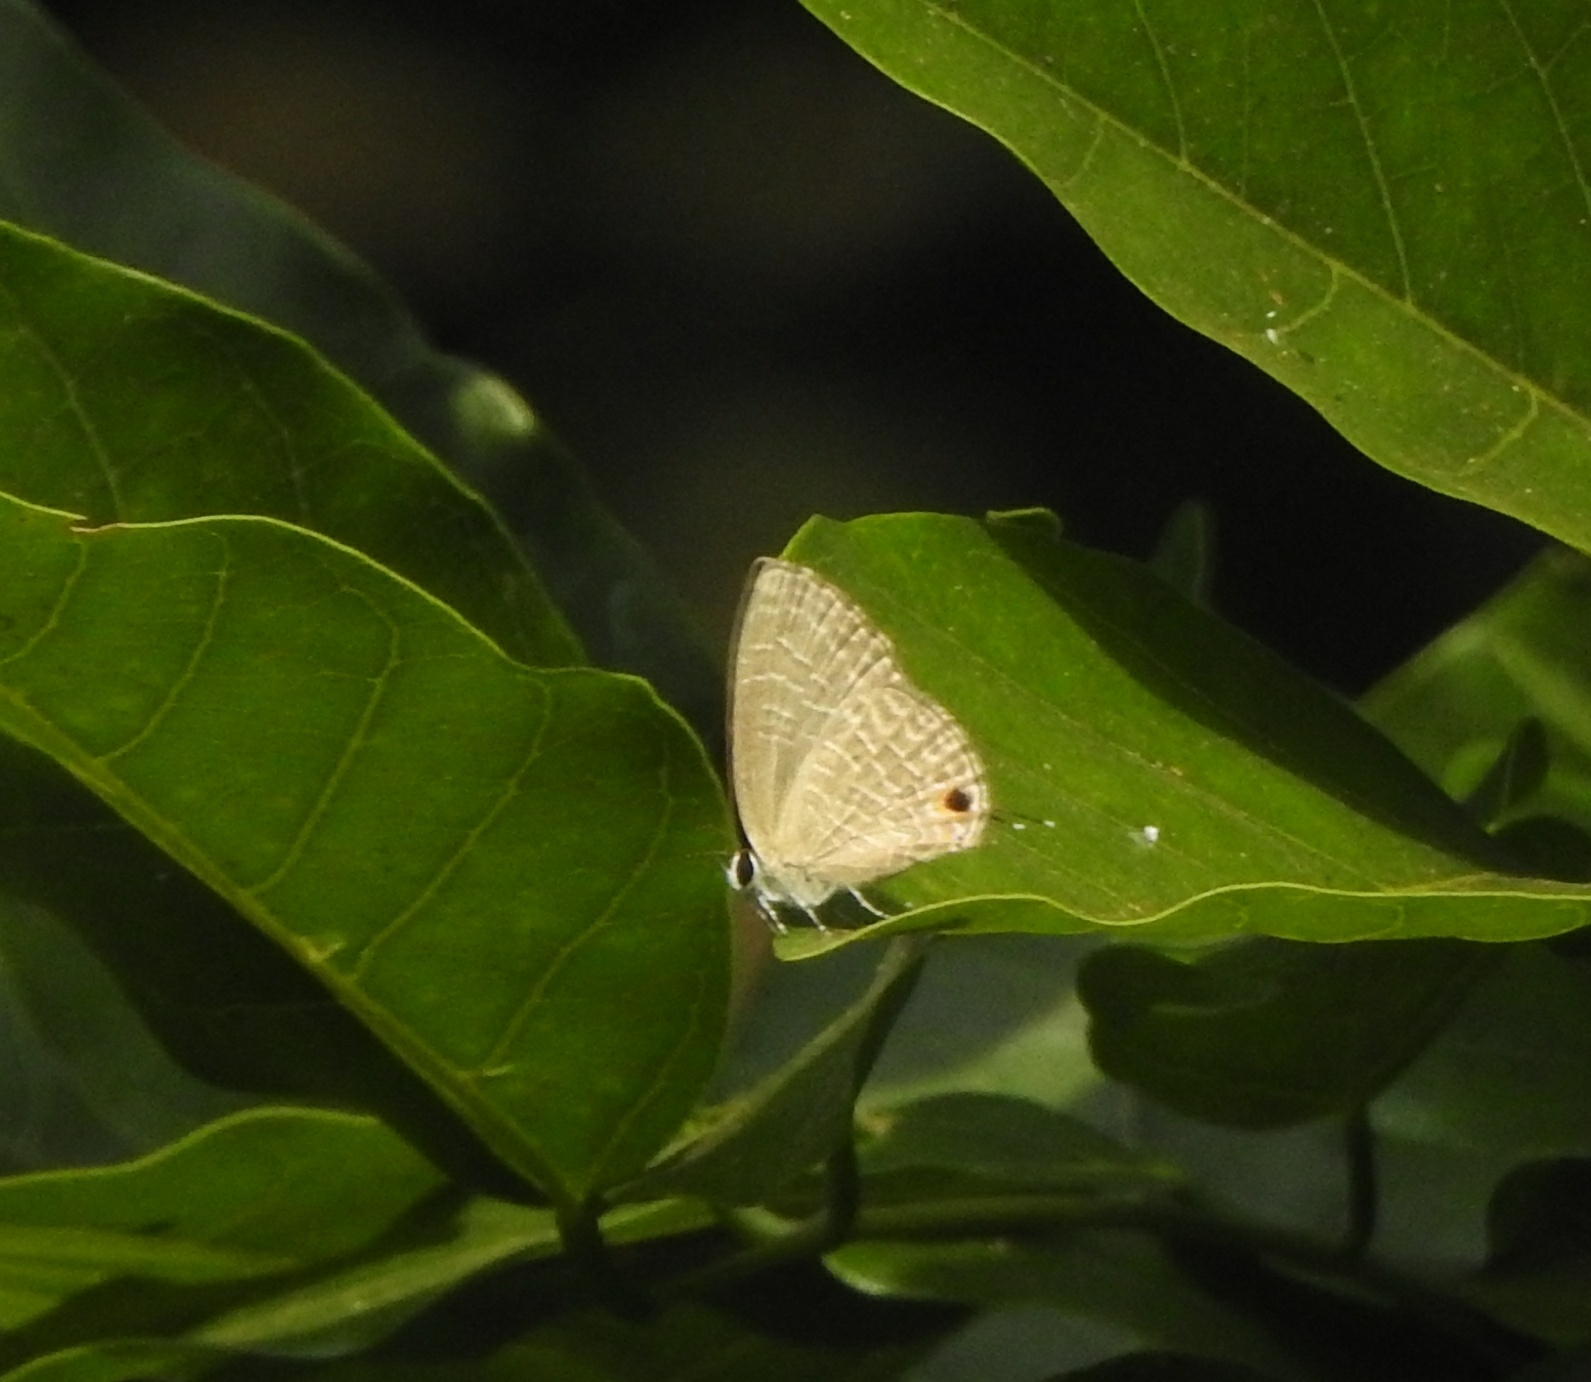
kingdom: Animalia
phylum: Arthropoda
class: Insecta
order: Lepidoptera
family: Lycaenidae
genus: Jamides
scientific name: Jamides bochus
